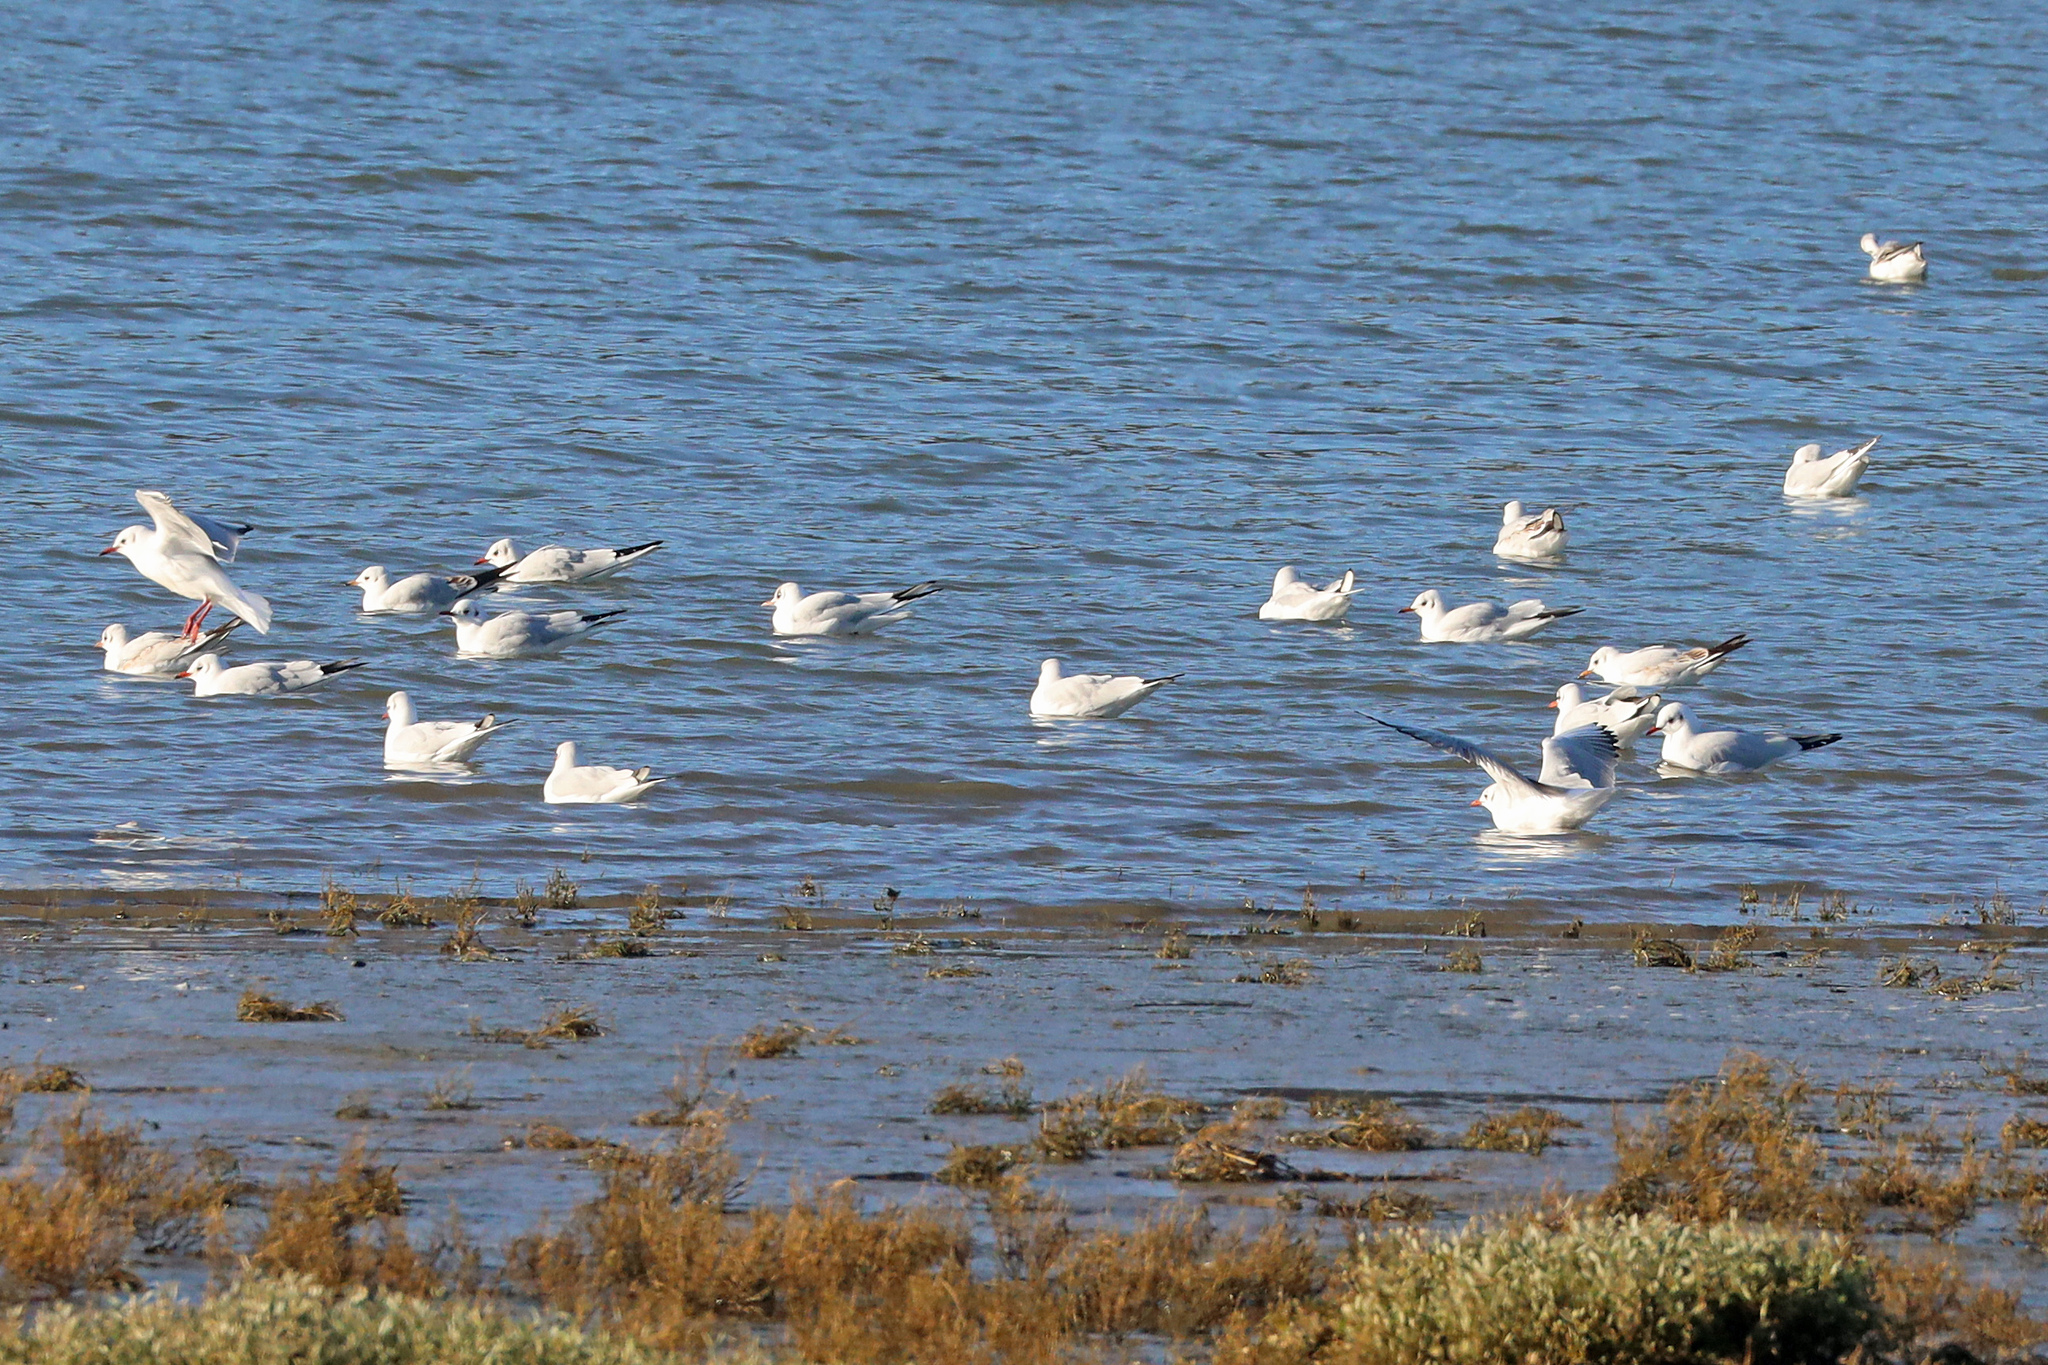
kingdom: Animalia
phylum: Chordata
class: Aves
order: Charadriiformes
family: Laridae
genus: Chroicocephalus
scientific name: Chroicocephalus ridibundus
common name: Black-headed gull
